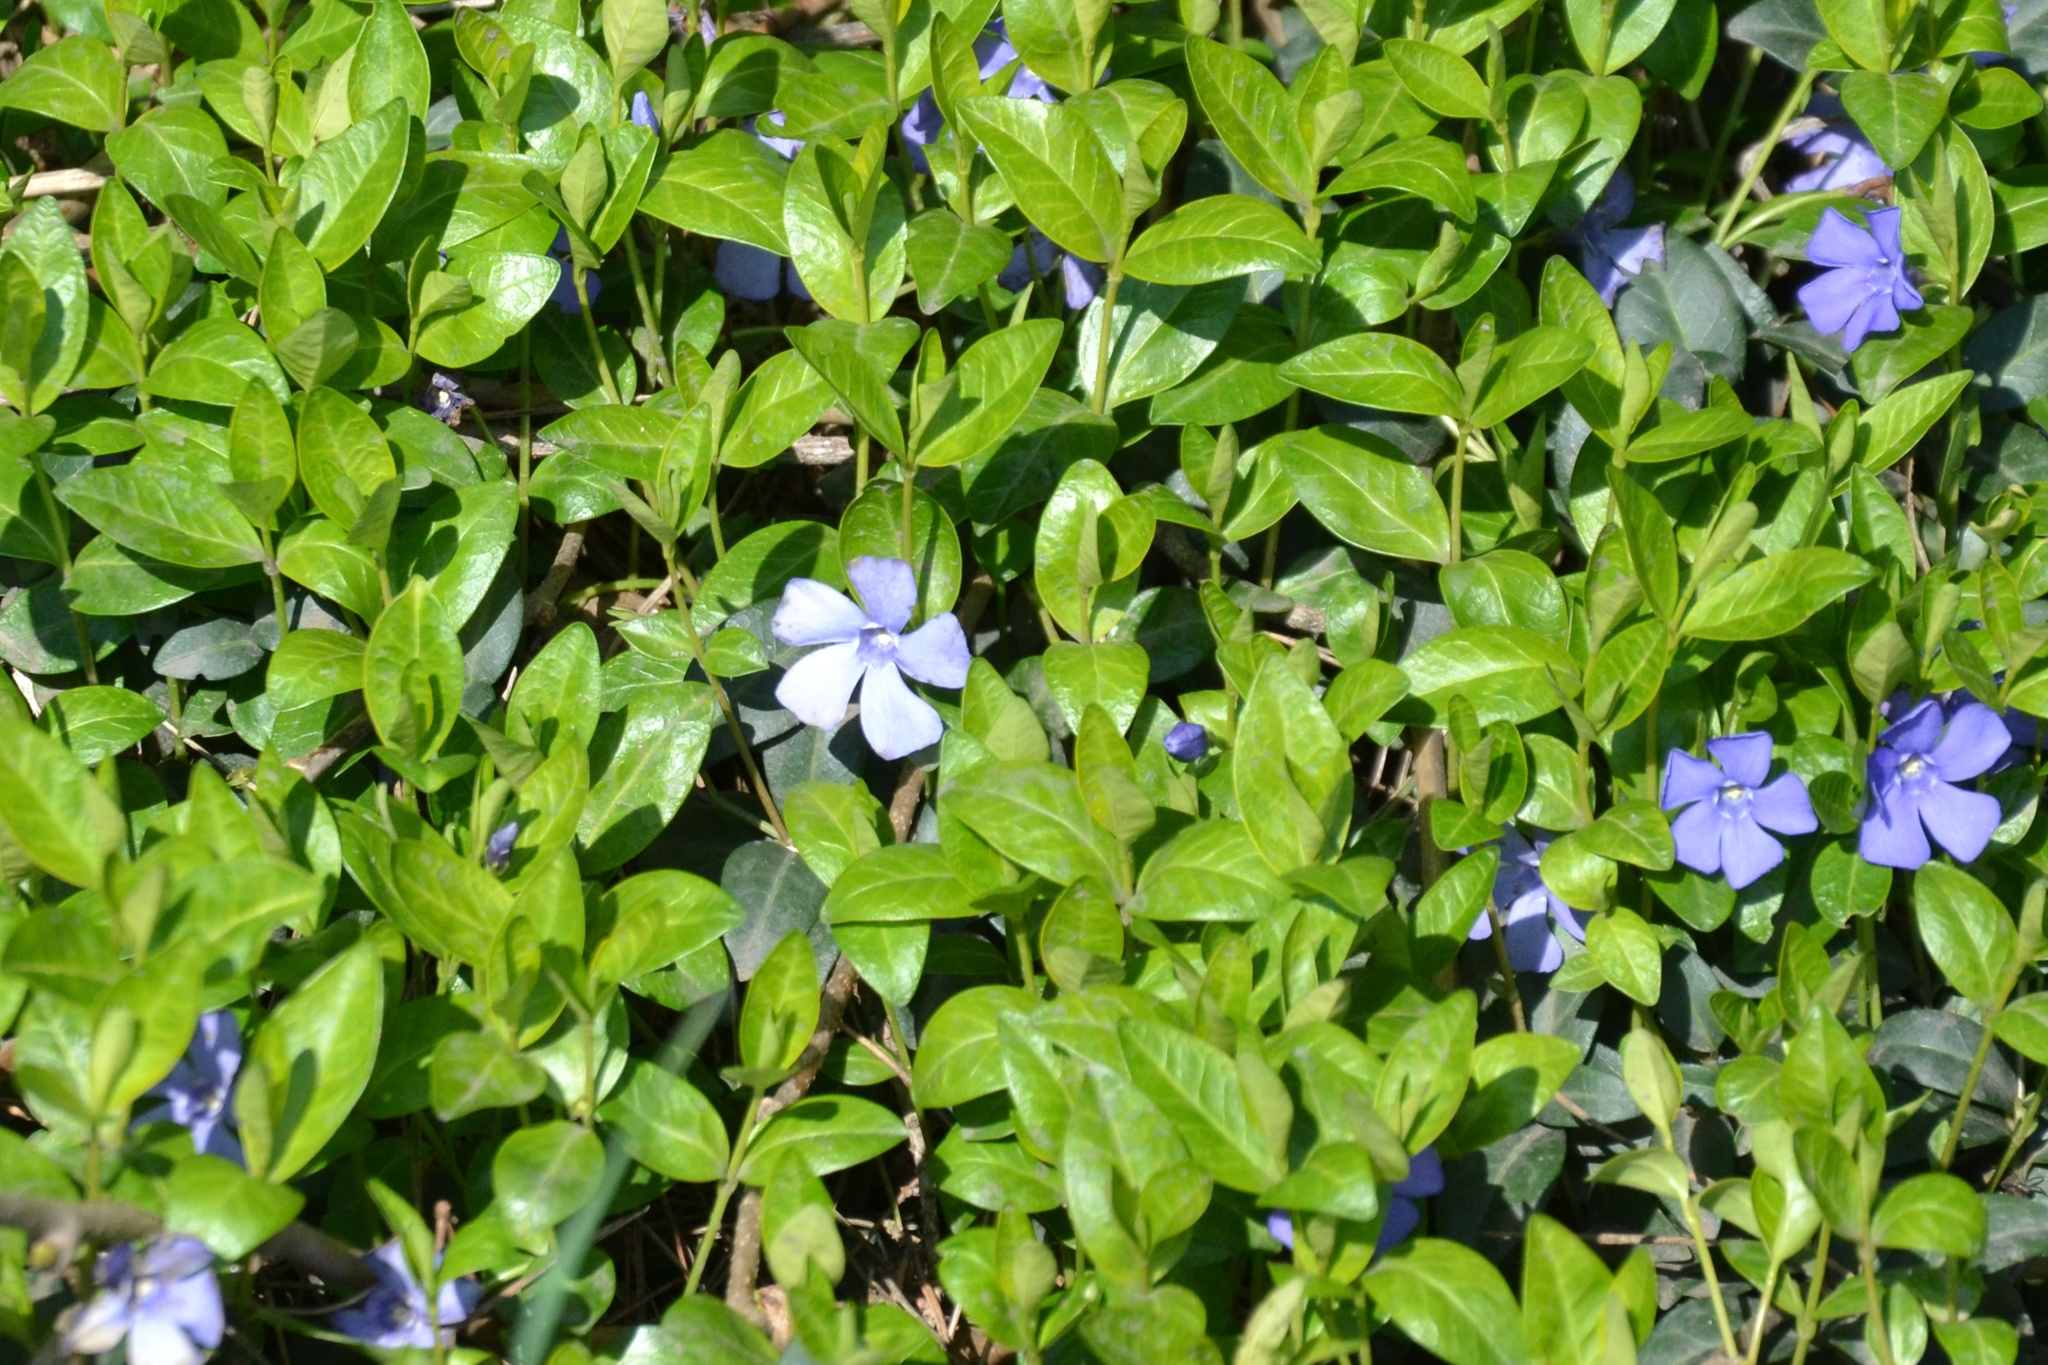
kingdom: Plantae
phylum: Tracheophyta
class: Magnoliopsida
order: Gentianales
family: Apocynaceae
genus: Vinca
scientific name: Vinca minor
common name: Lesser periwinkle
